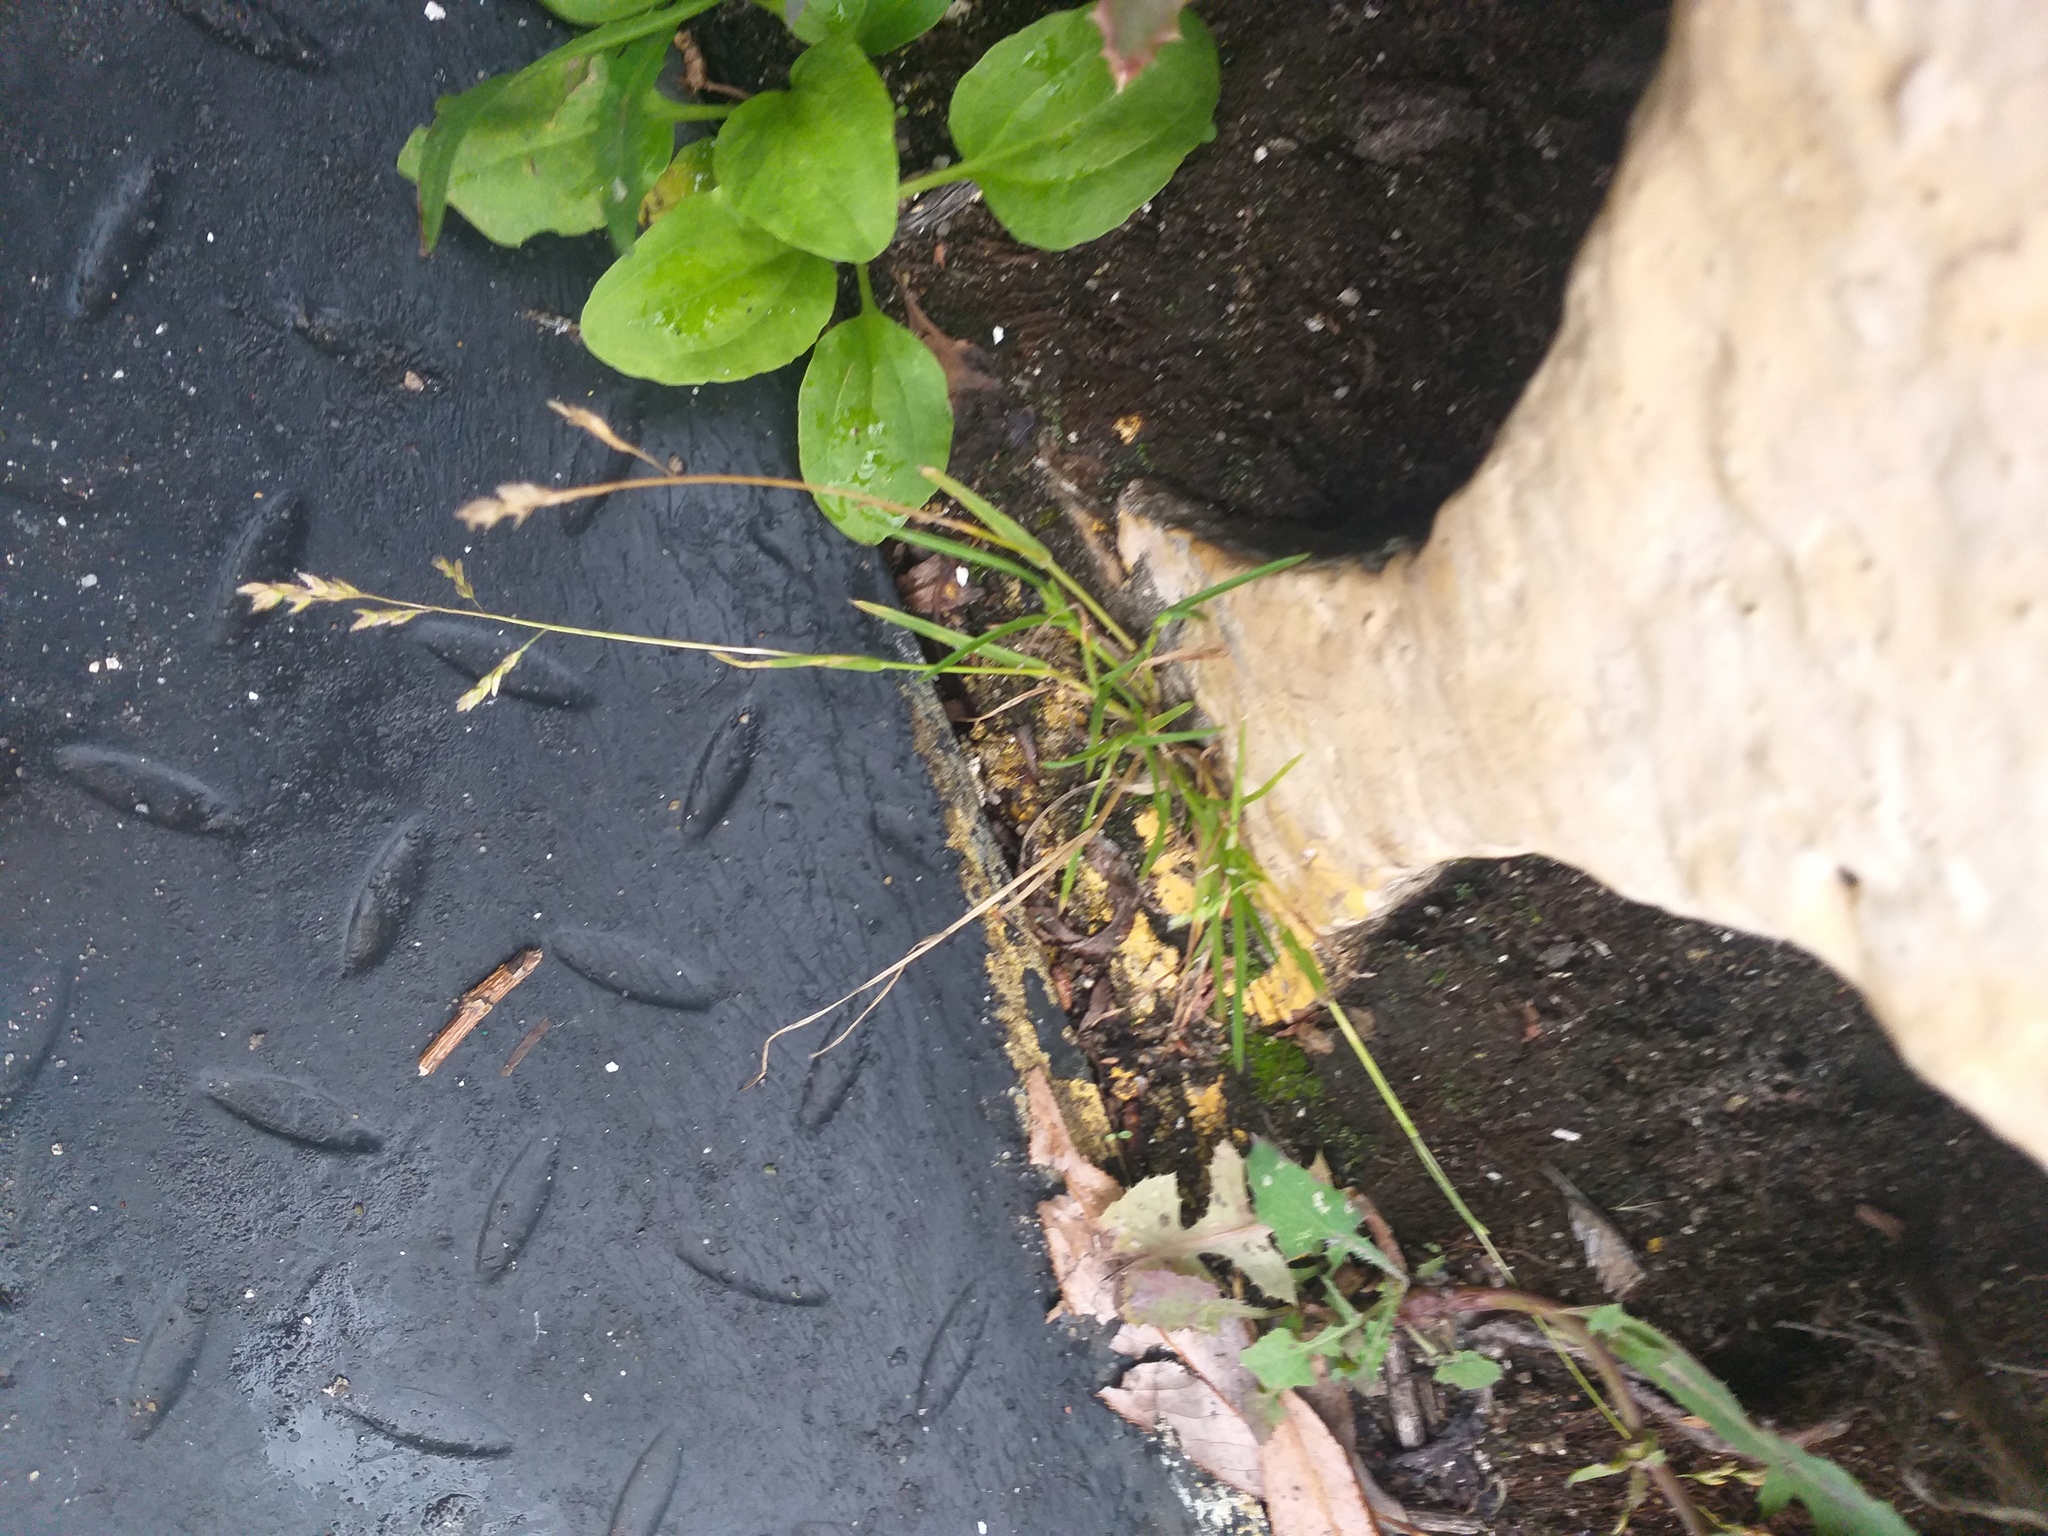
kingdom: Plantae
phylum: Tracheophyta
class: Liliopsida
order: Poales
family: Poaceae
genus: Poa
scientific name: Poa annua
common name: Annual bluegrass
